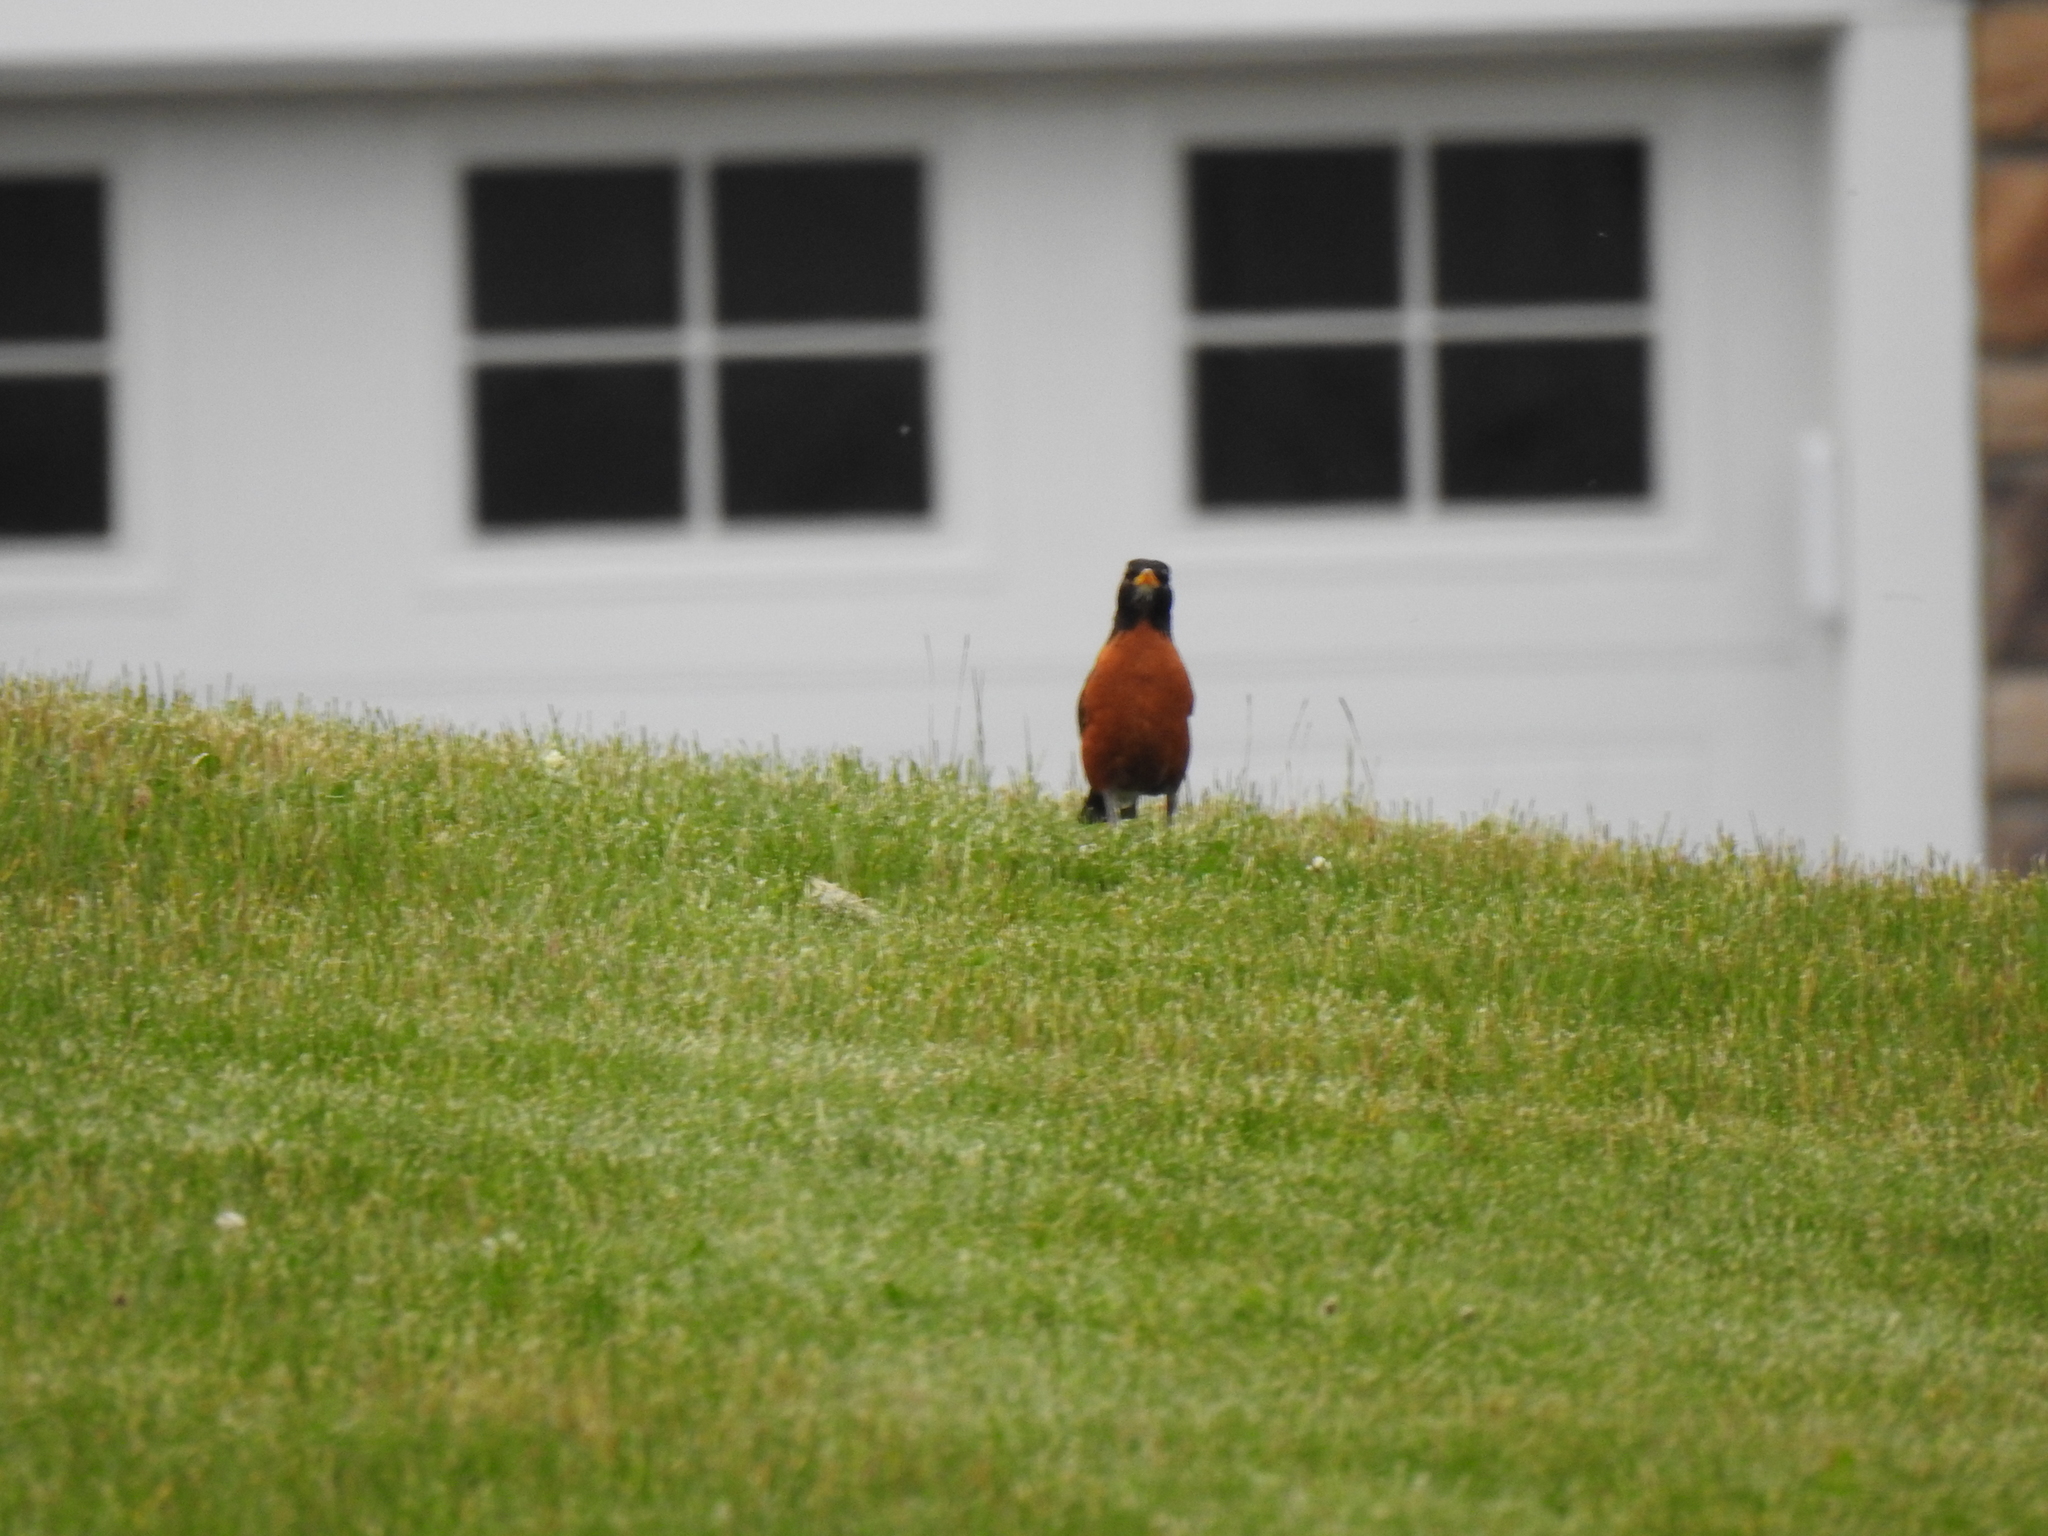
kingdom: Animalia
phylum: Chordata
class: Aves
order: Passeriformes
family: Turdidae
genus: Turdus
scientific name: Turdus migratorius
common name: American robin
